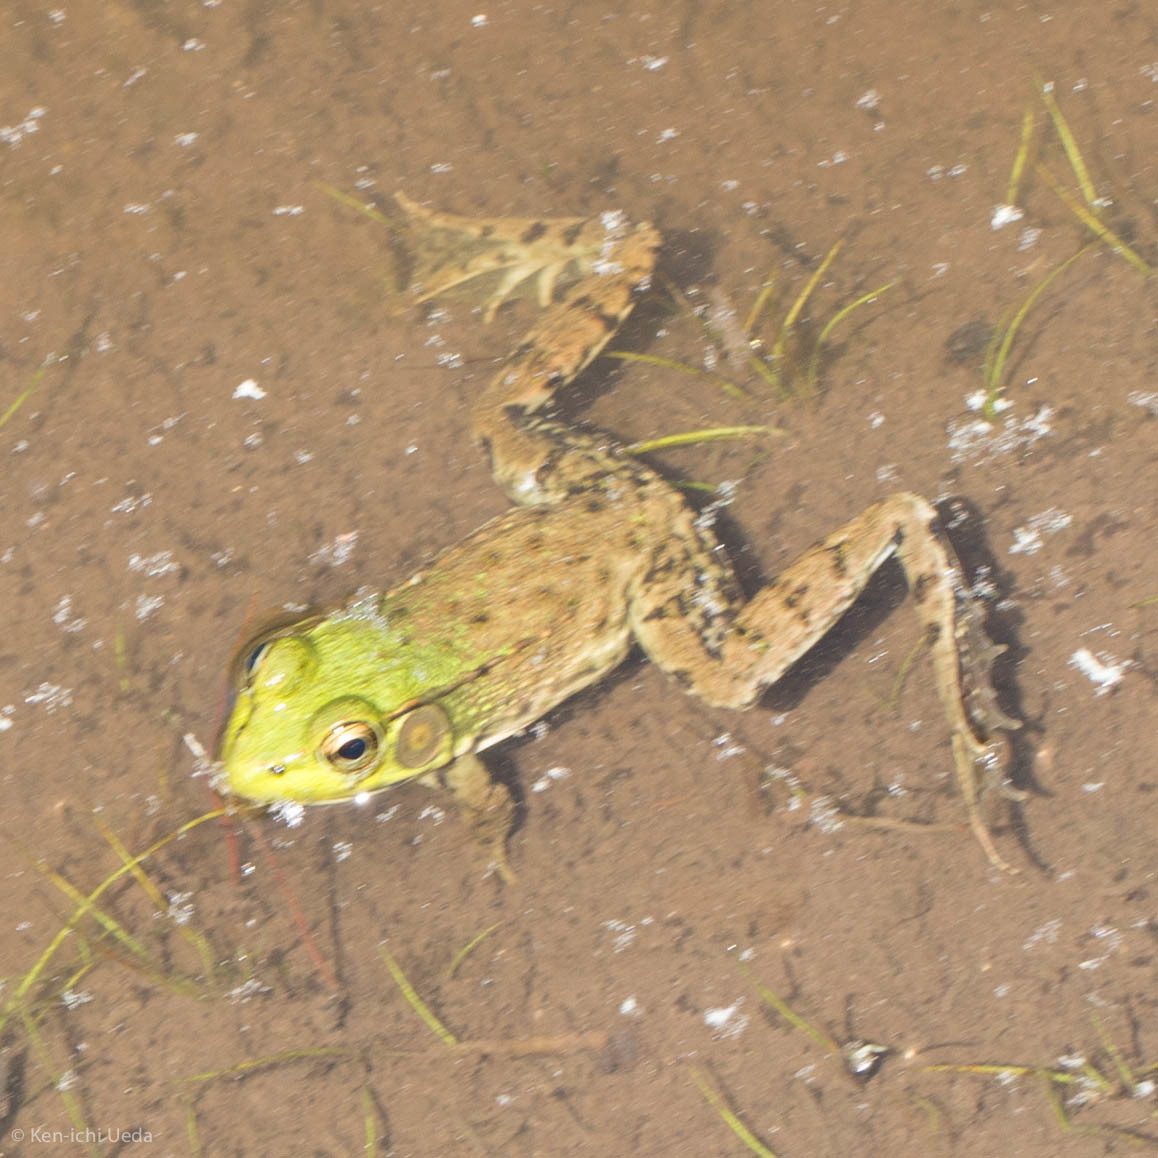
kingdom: Animalia
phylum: Chordata
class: Amphibia
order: Anura
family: Ranidae
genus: Lithobates
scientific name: Lithobates clamitans
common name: Green frog
